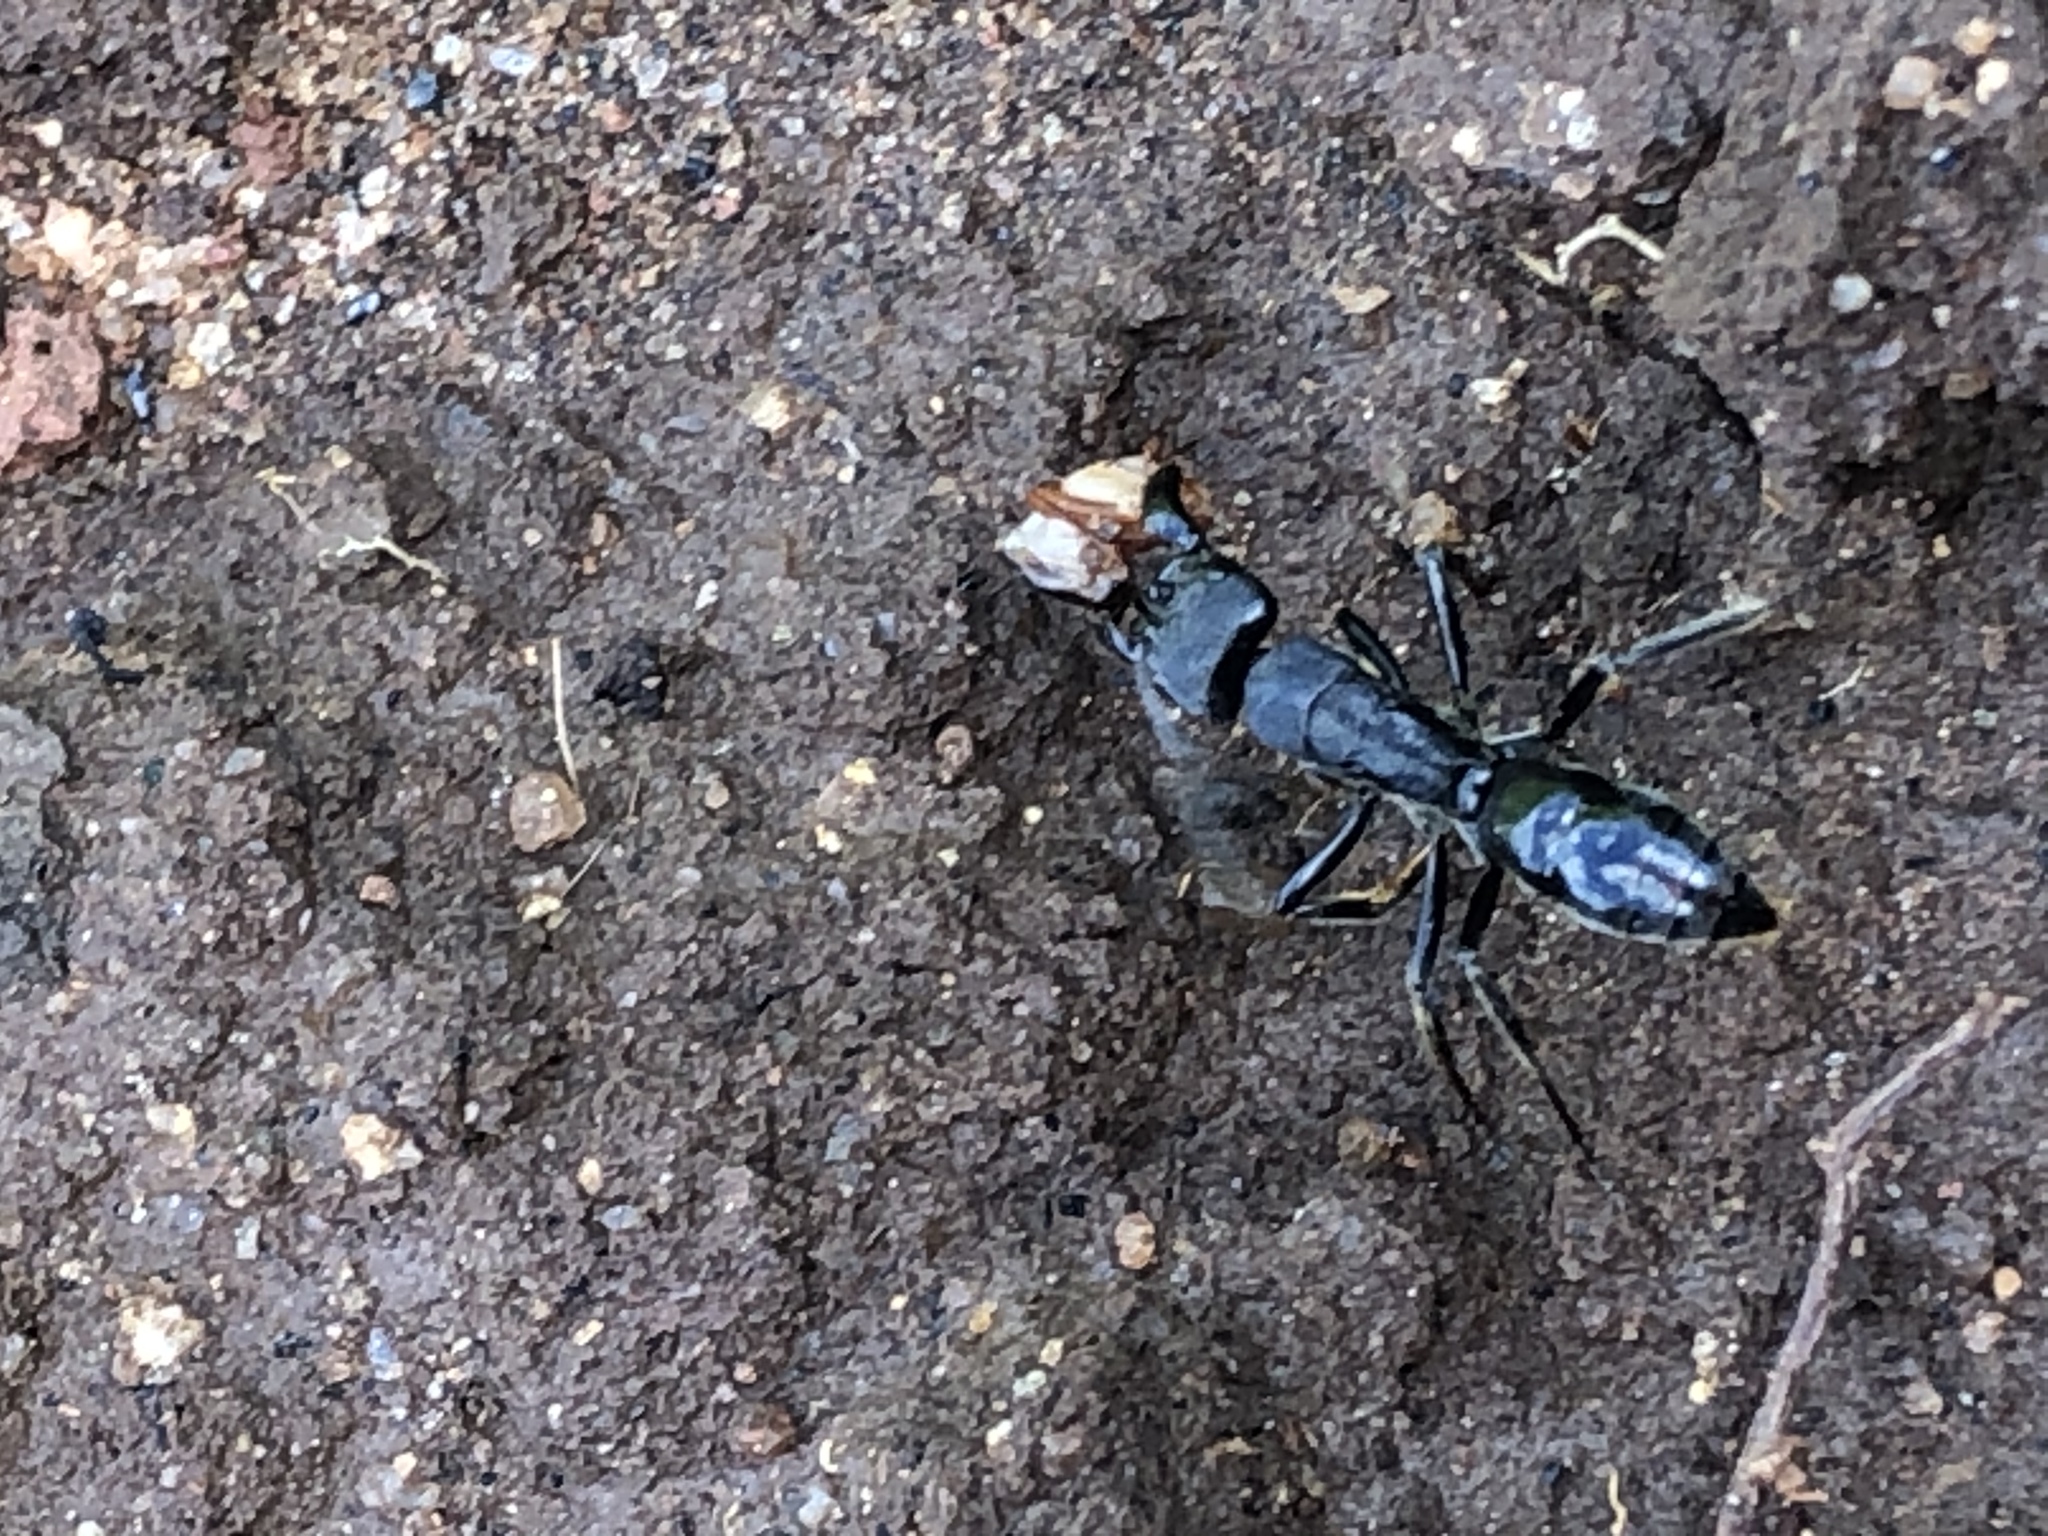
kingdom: Animalia
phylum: Arthropoda
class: Insecta
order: Hymenoptera
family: Formicidae
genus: Paltothyreus
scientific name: Paltothyreus tarsatus
